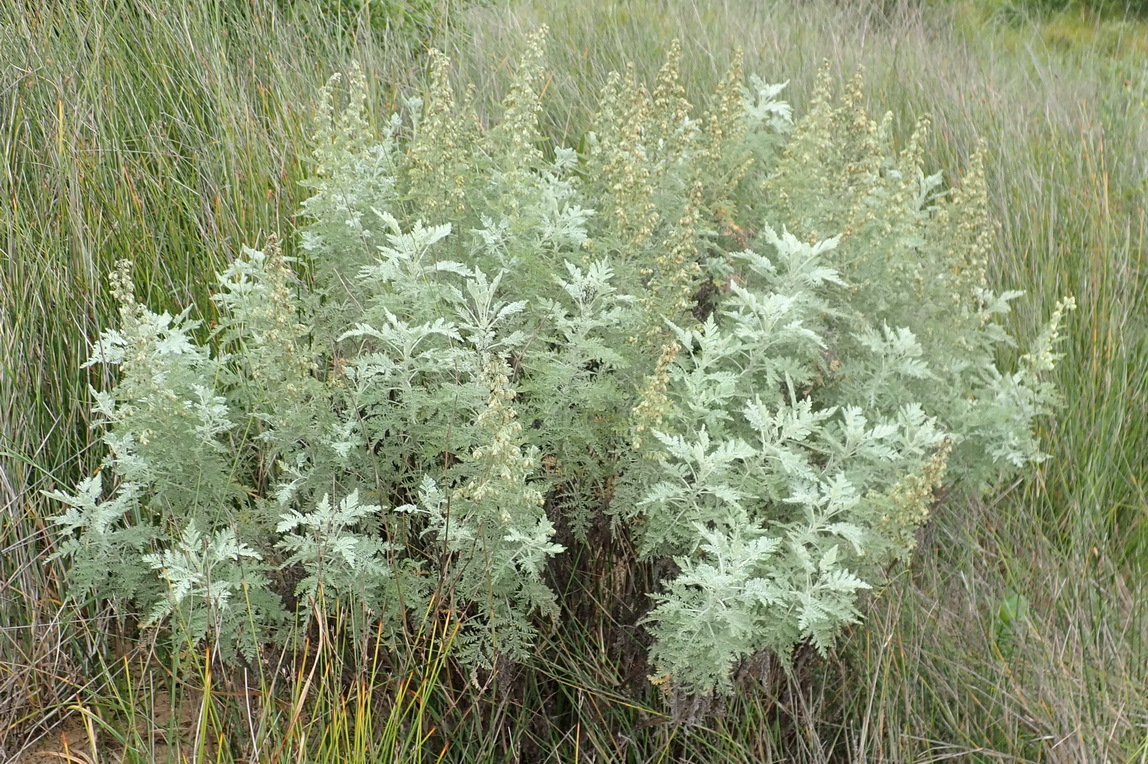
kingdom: Plantae
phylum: Tracheophyta
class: Magnoliopsida
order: Asterales
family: Asteraceae
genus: Artemisia
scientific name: Artemisia afra
